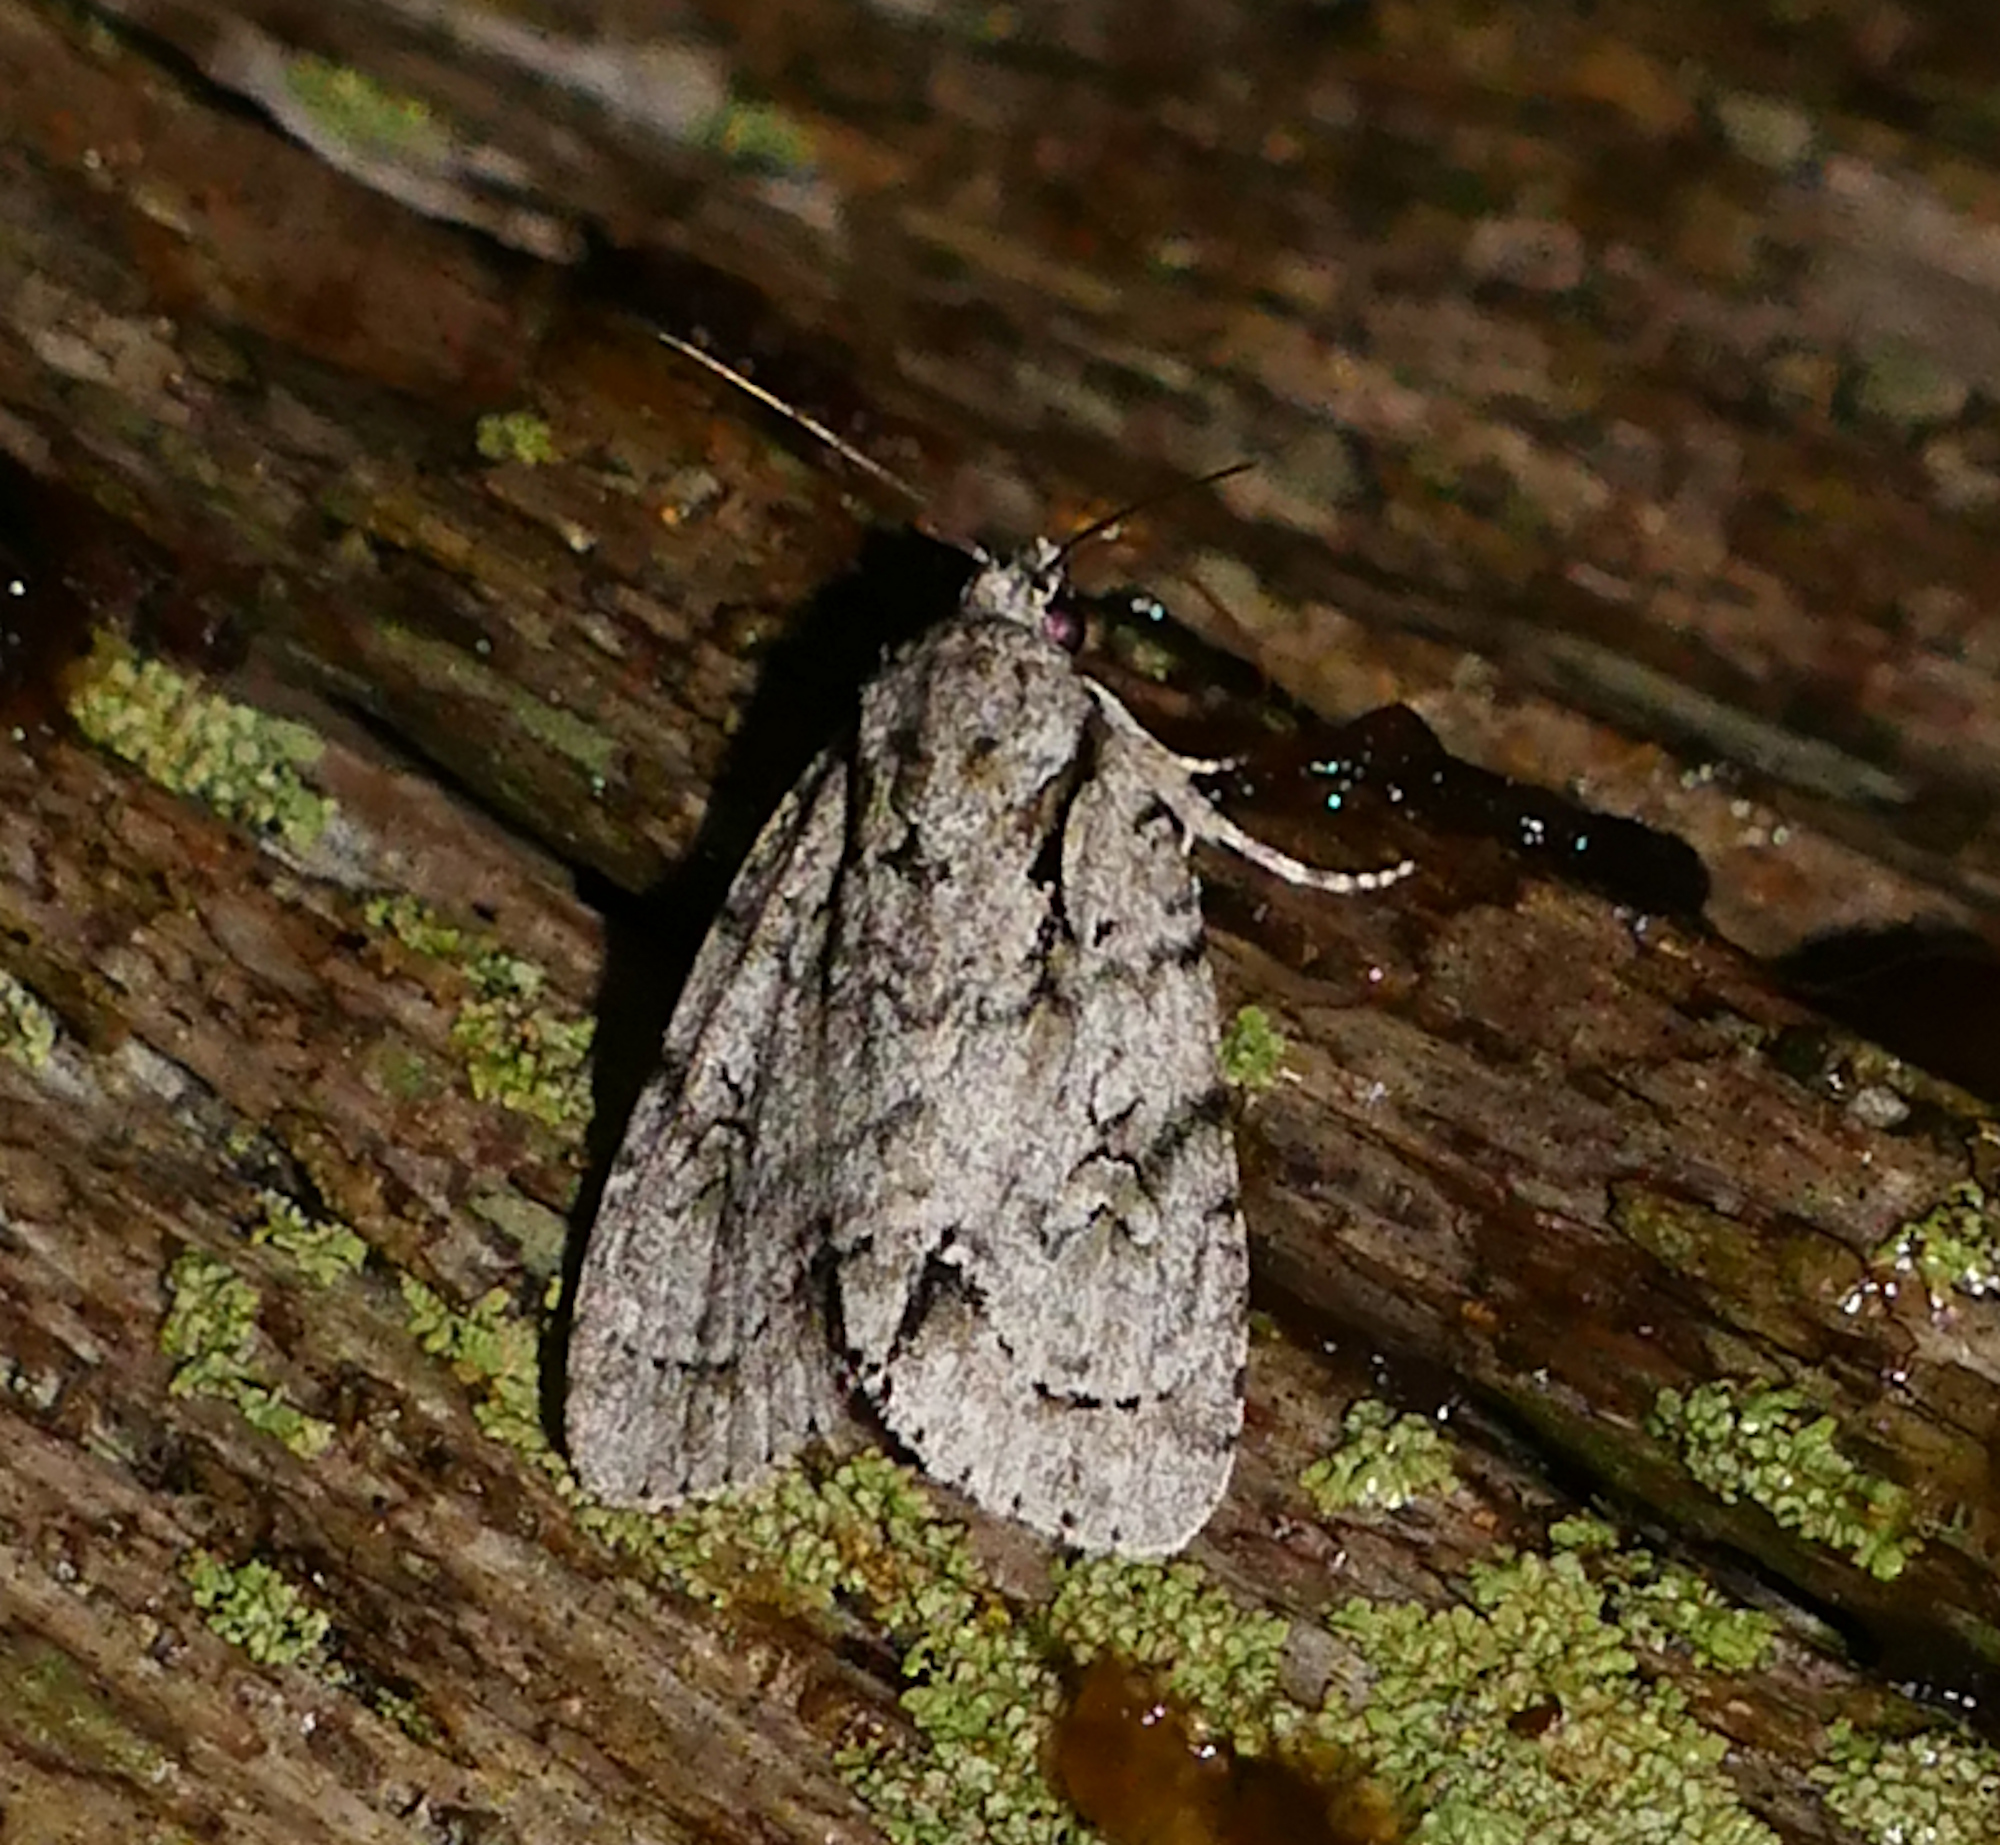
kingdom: Animalia
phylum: Arthropoda
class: Insecta
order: Lepidoptera
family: Noctuidae
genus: Acronicta
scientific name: Acronicta vinnula
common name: Delightful dagger
